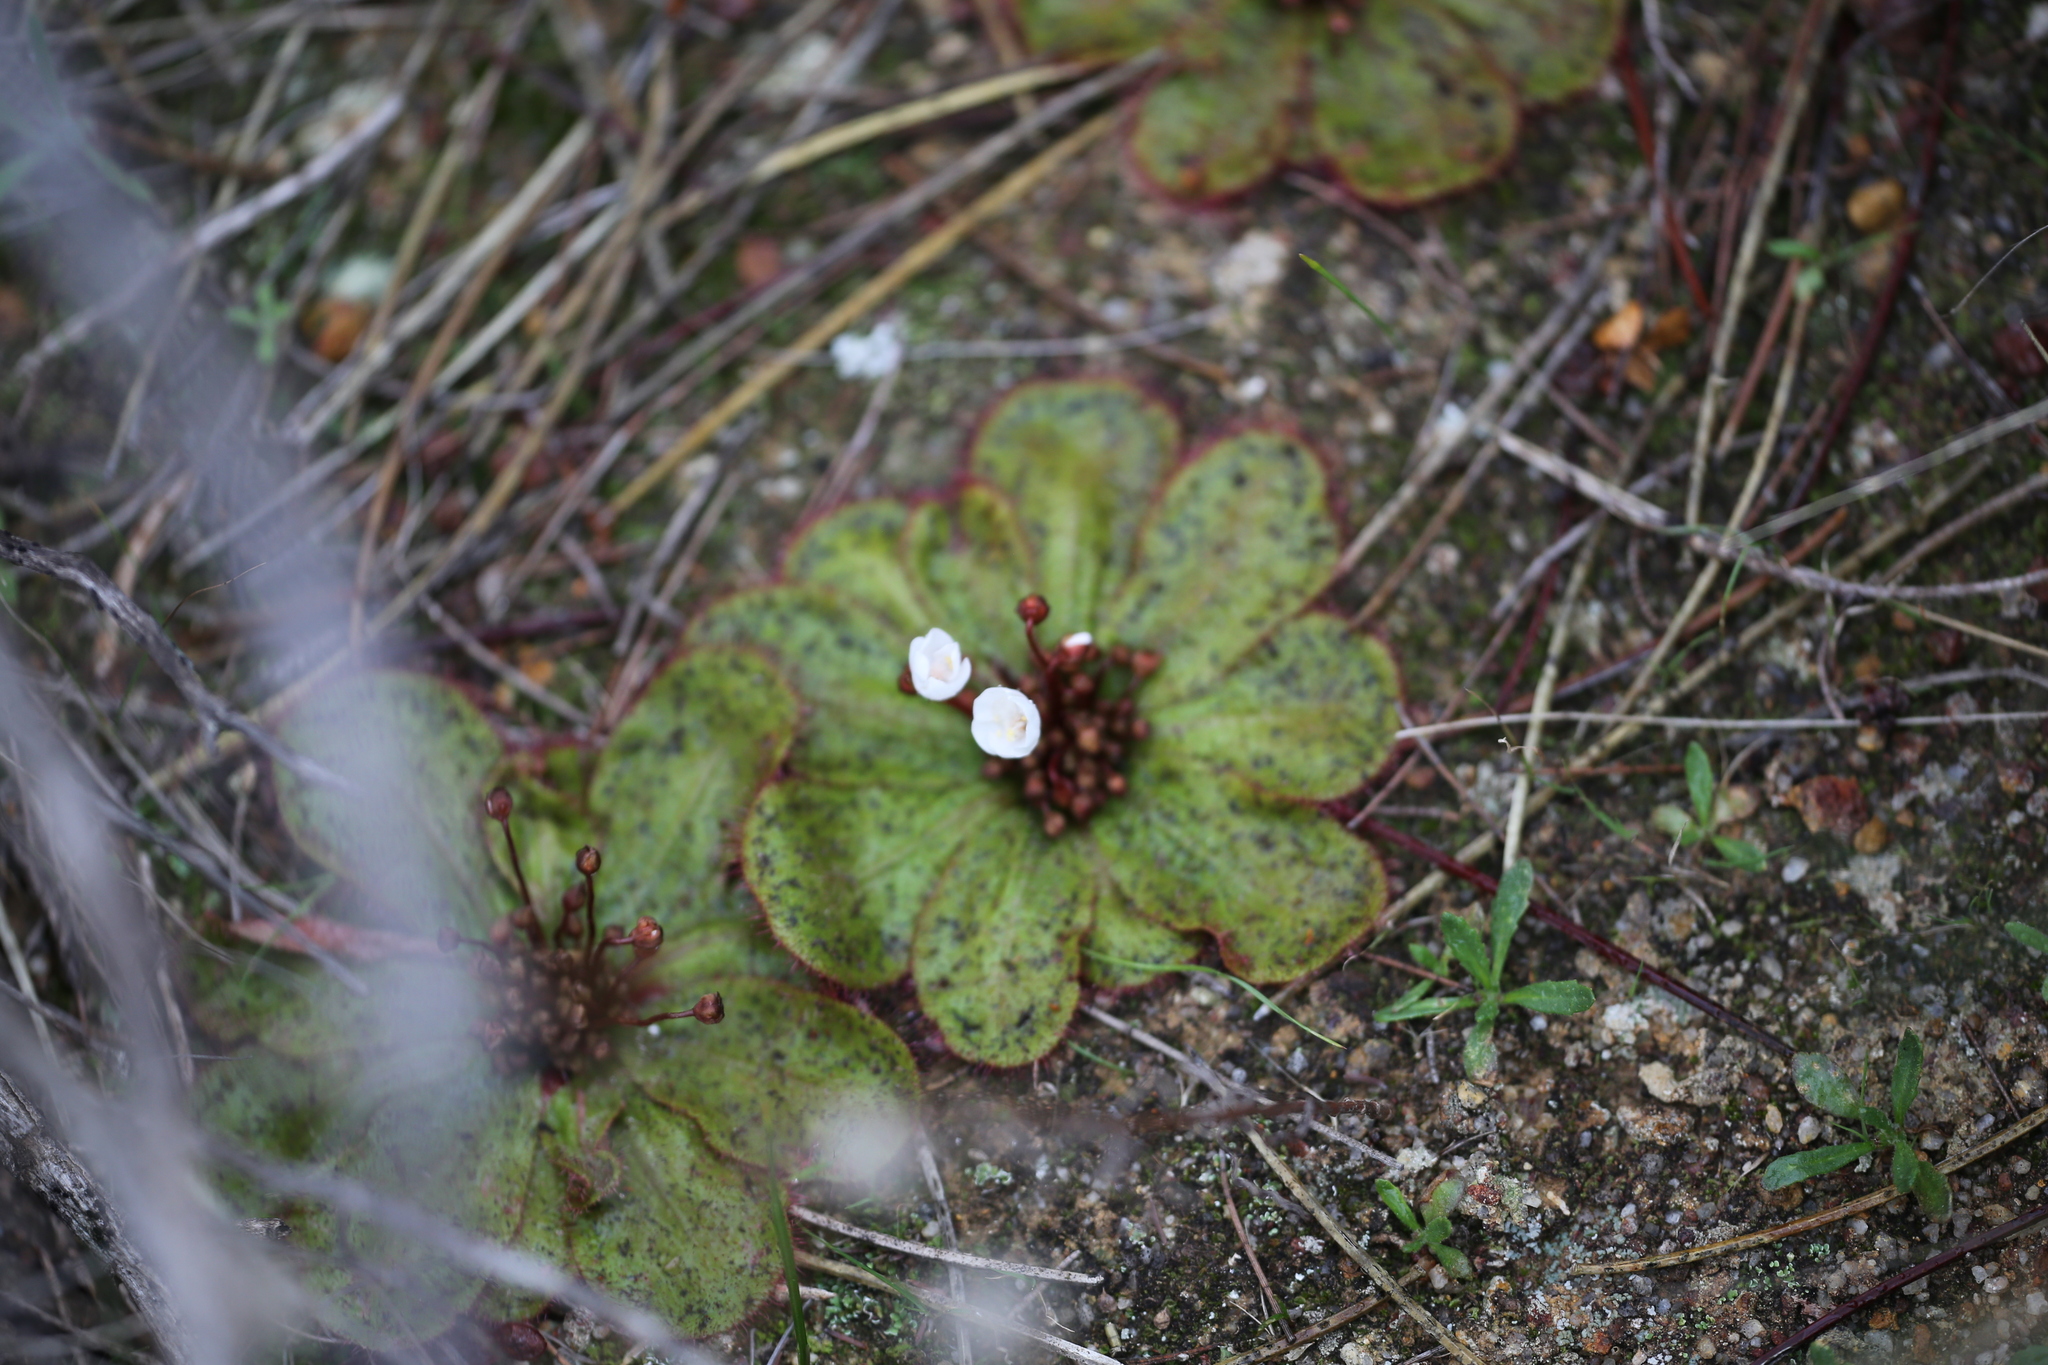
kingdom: Plantae
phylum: Tracheophyta
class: Magnoliopsida
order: Caryophyllales
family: Droseraceae
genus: Drosera
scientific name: Drosera macrophylla
